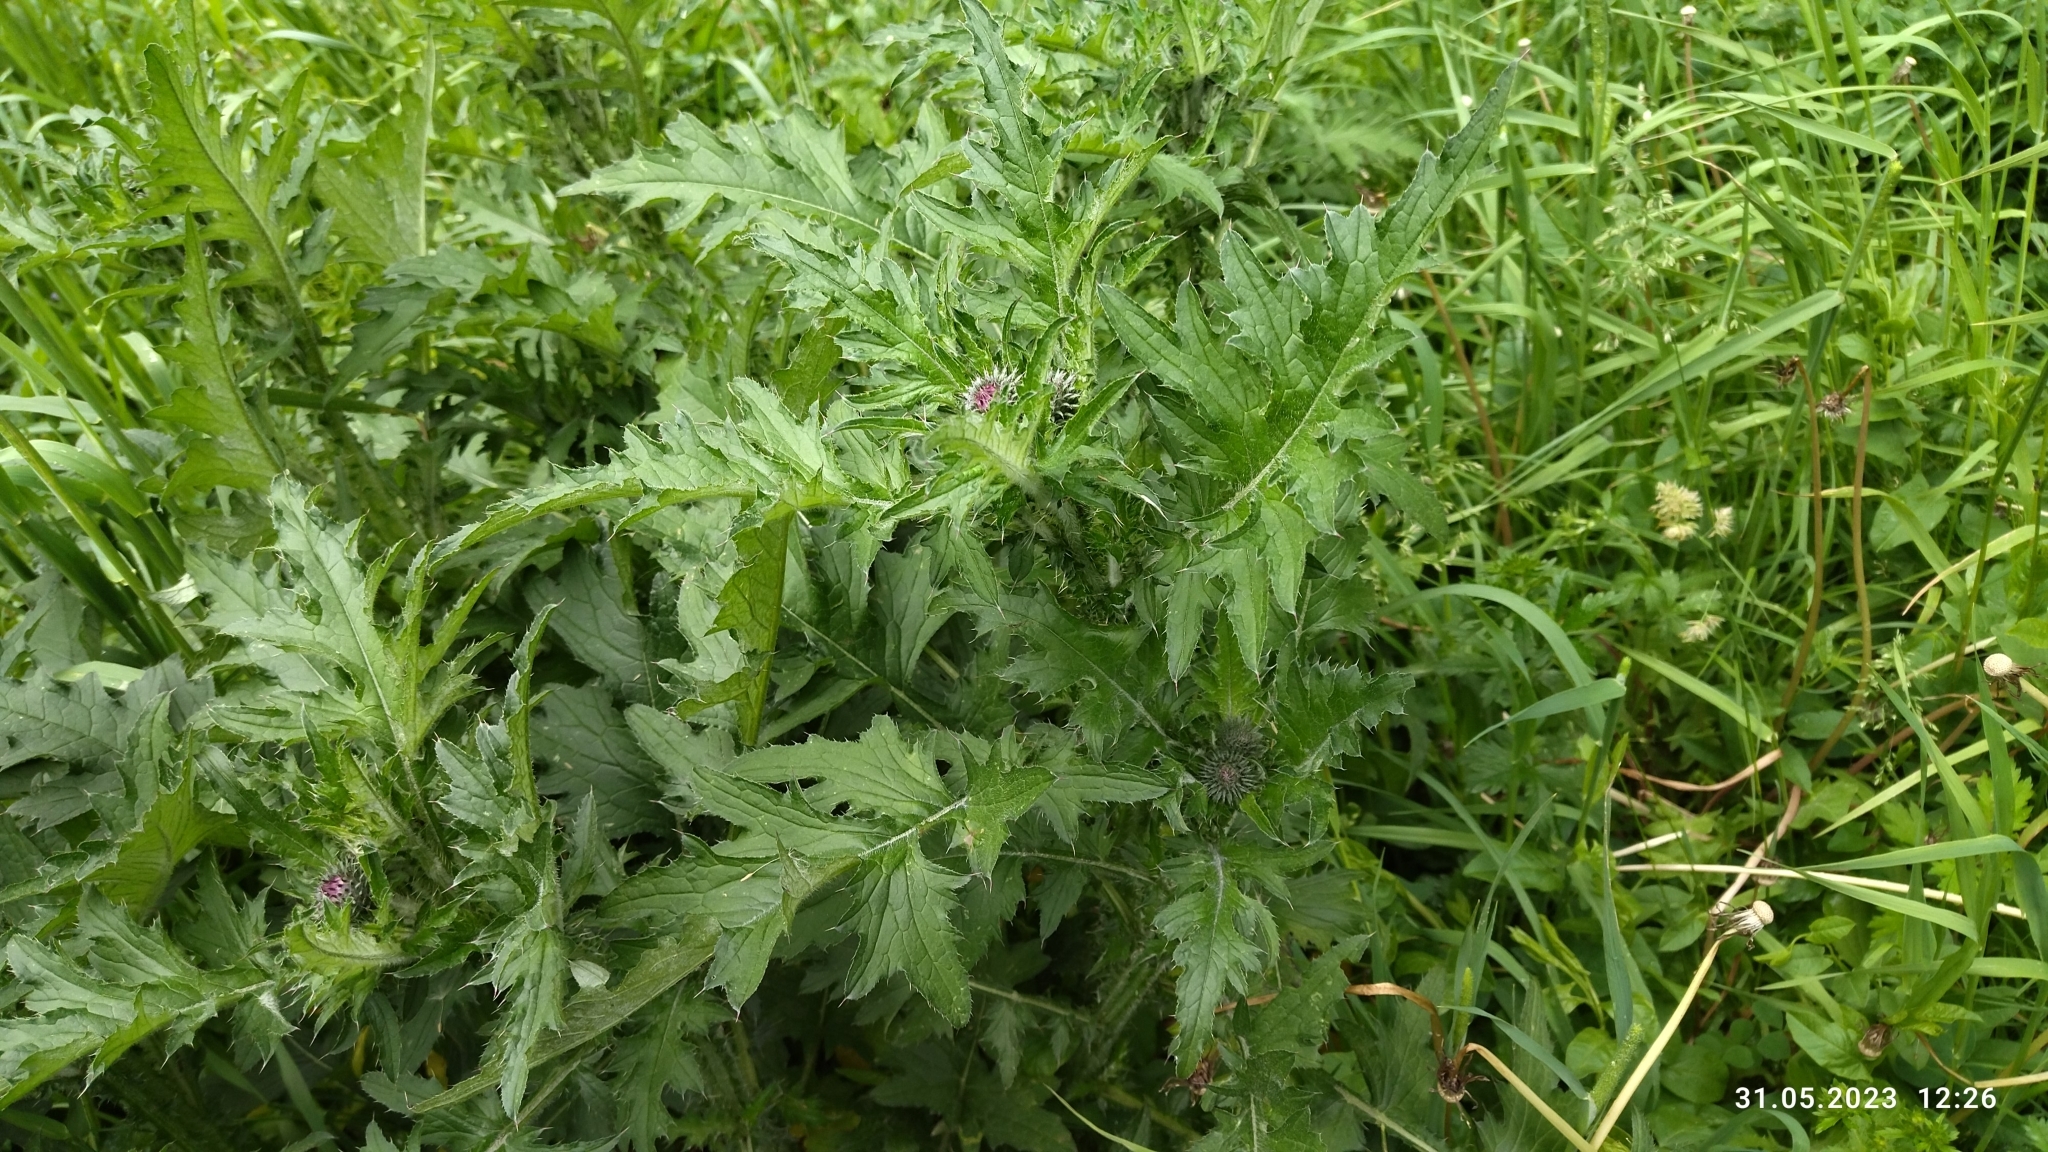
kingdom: Plantae
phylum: Tracheophyta
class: Magnoliopsida
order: Asterales
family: Asteraceae
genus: Carduus
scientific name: Carduus crispus
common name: Welted thistle
